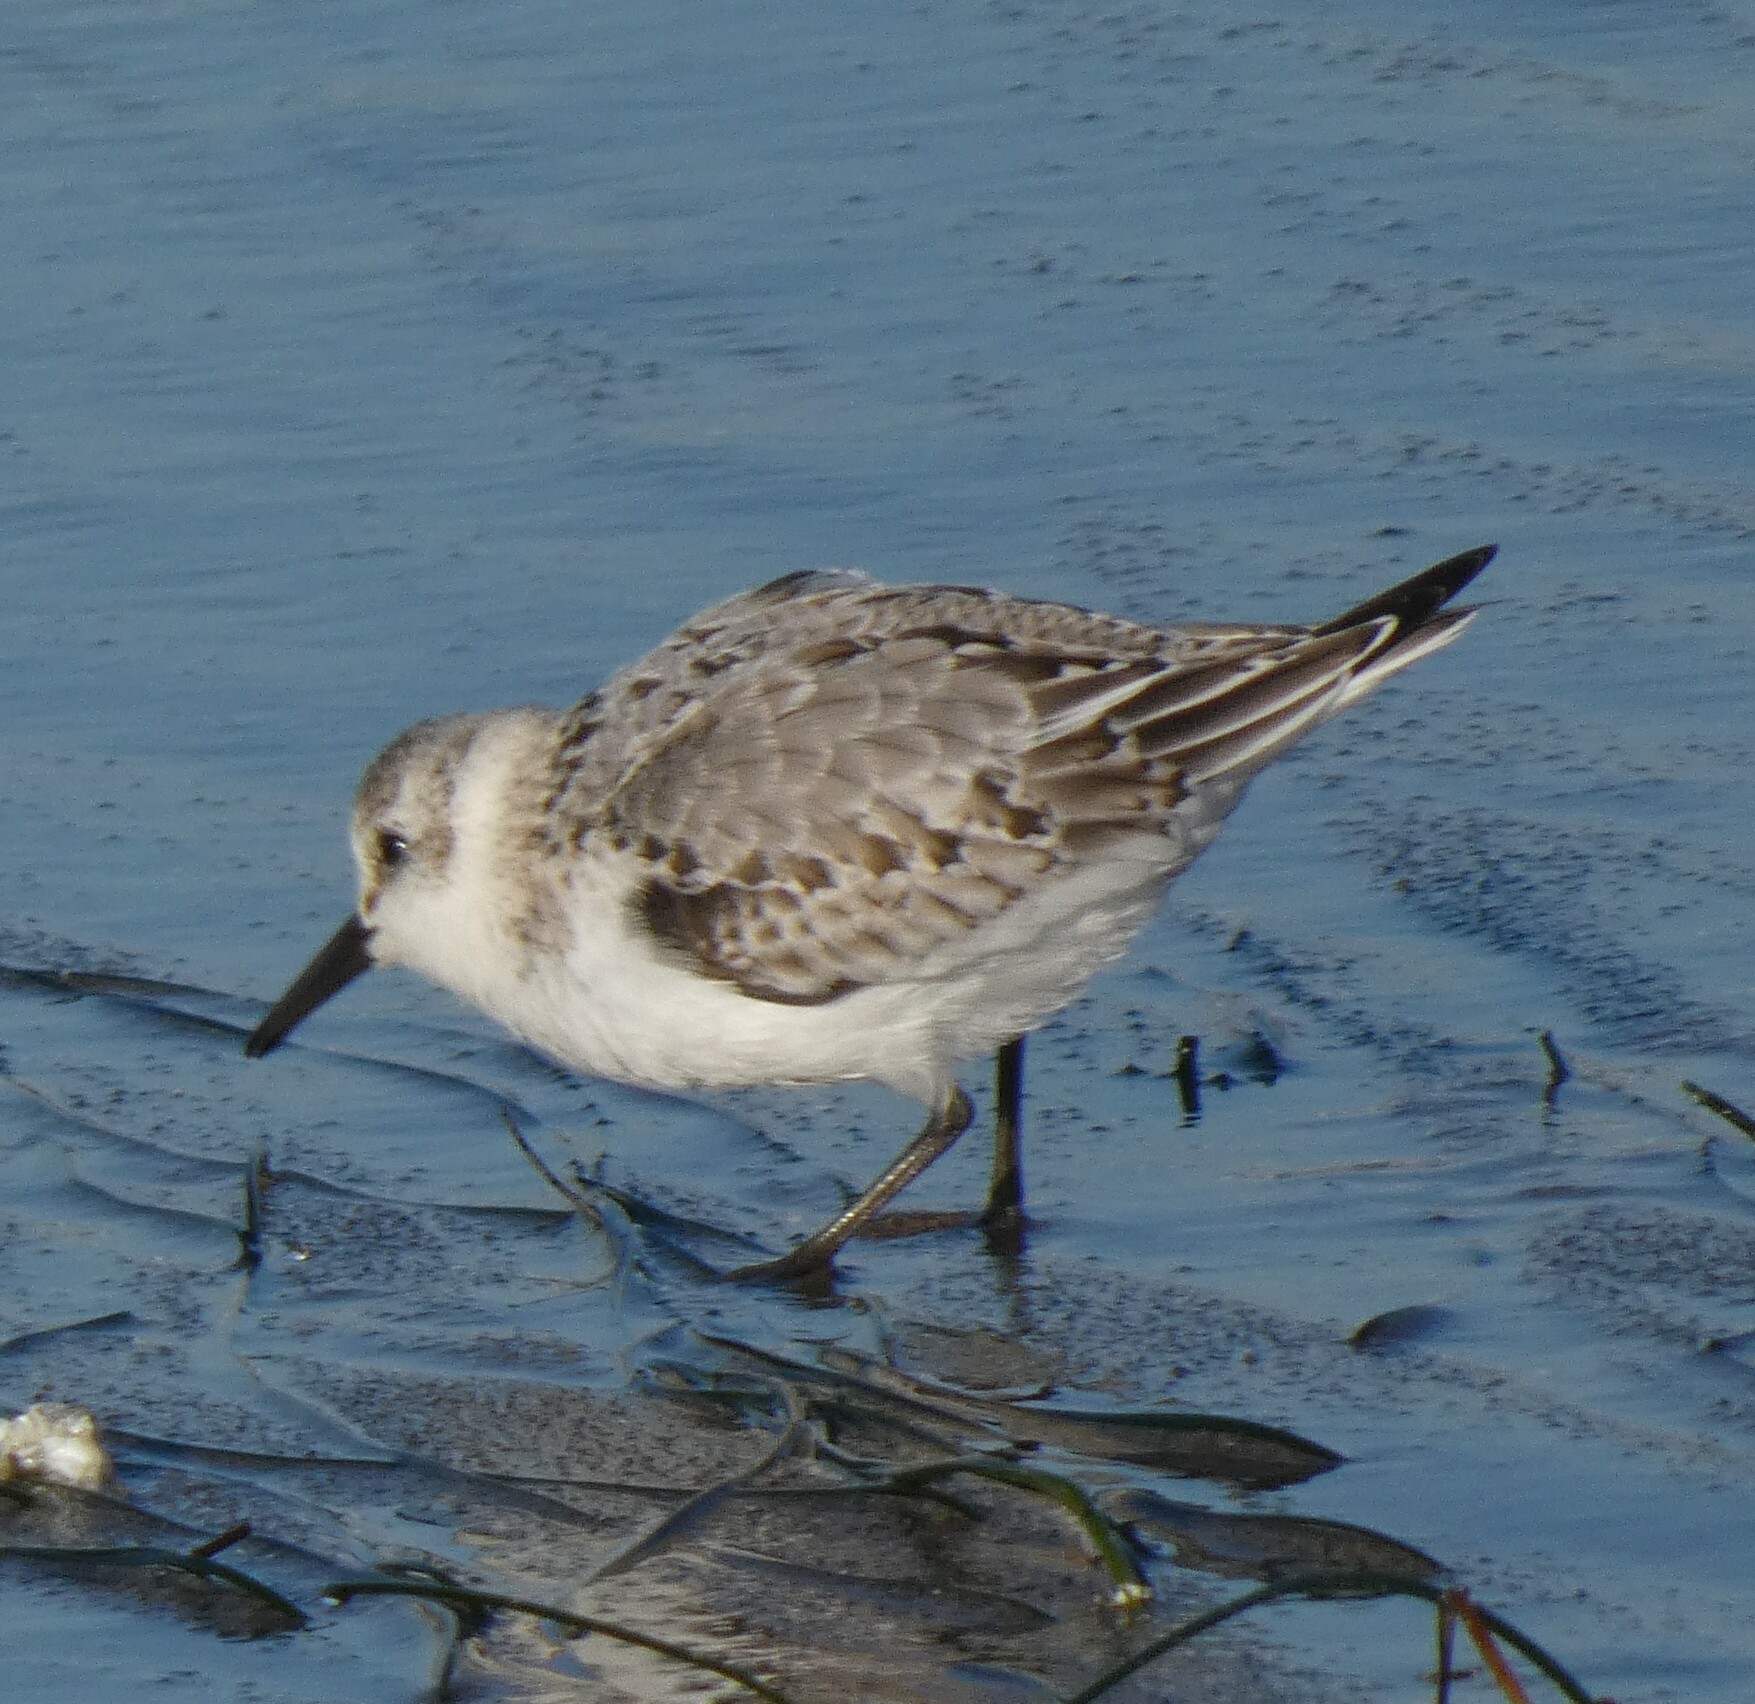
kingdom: Animalia
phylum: Chordata
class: Aves
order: Charadriiformes
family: Scolopacidae
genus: Calidris
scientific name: Calidris alba
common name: Sanderling
